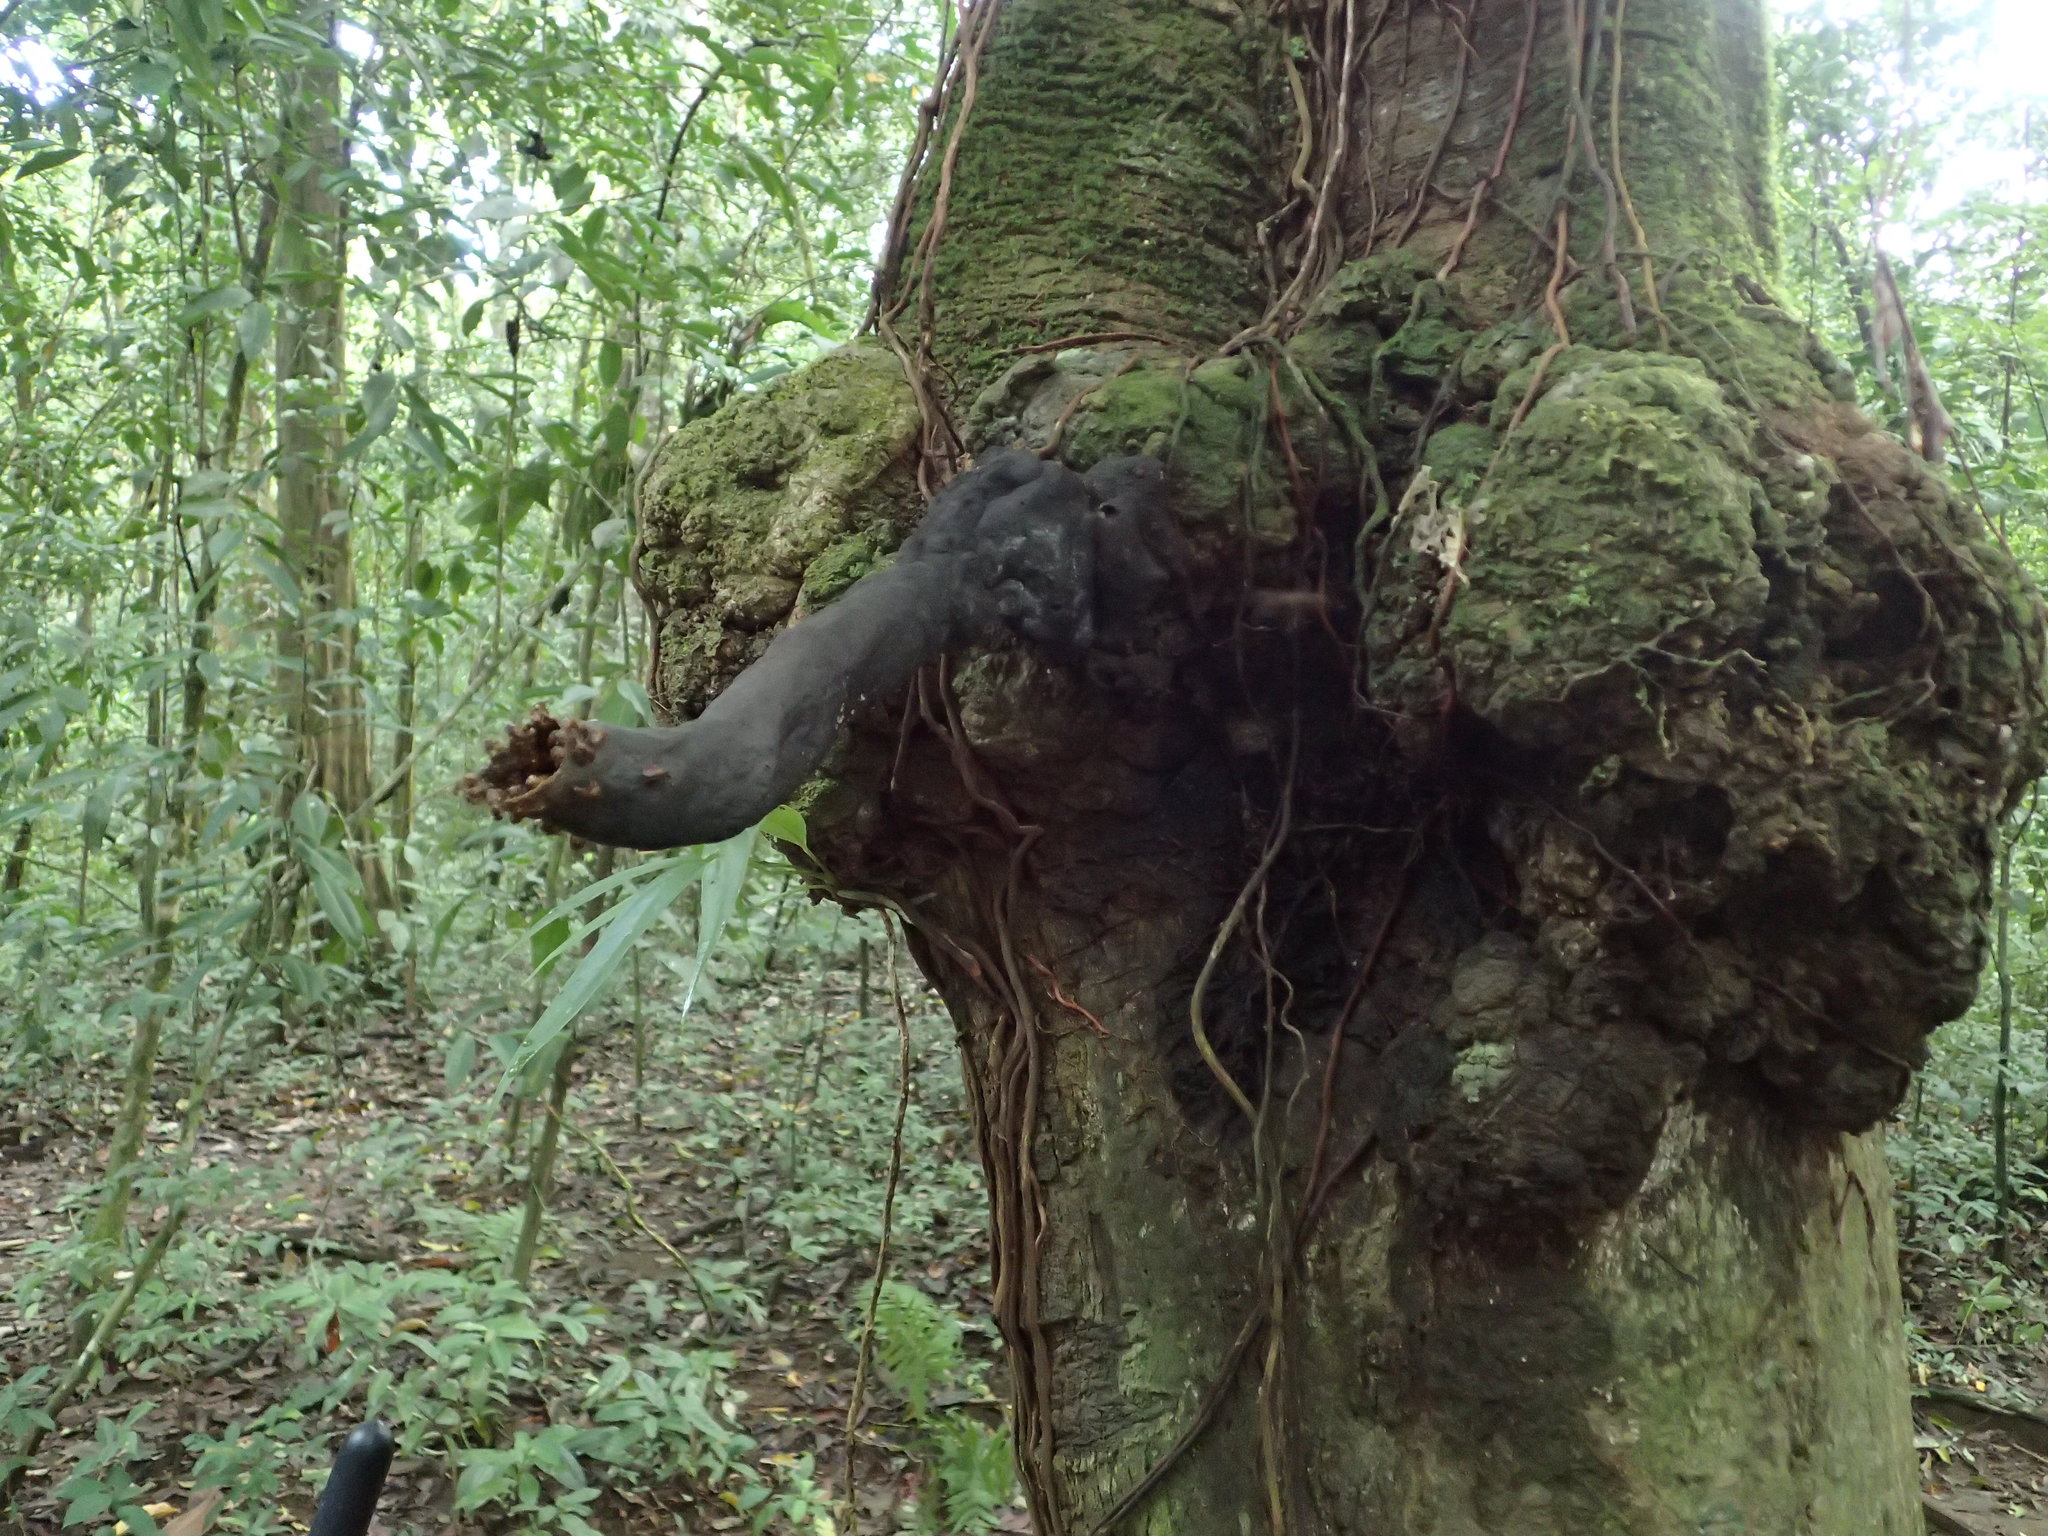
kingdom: Animalia
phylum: Arthropoda
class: Insecta
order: Hymenoptera
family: Apidae
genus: Scaptotrigona
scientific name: Scaptotrigona pectoralis
